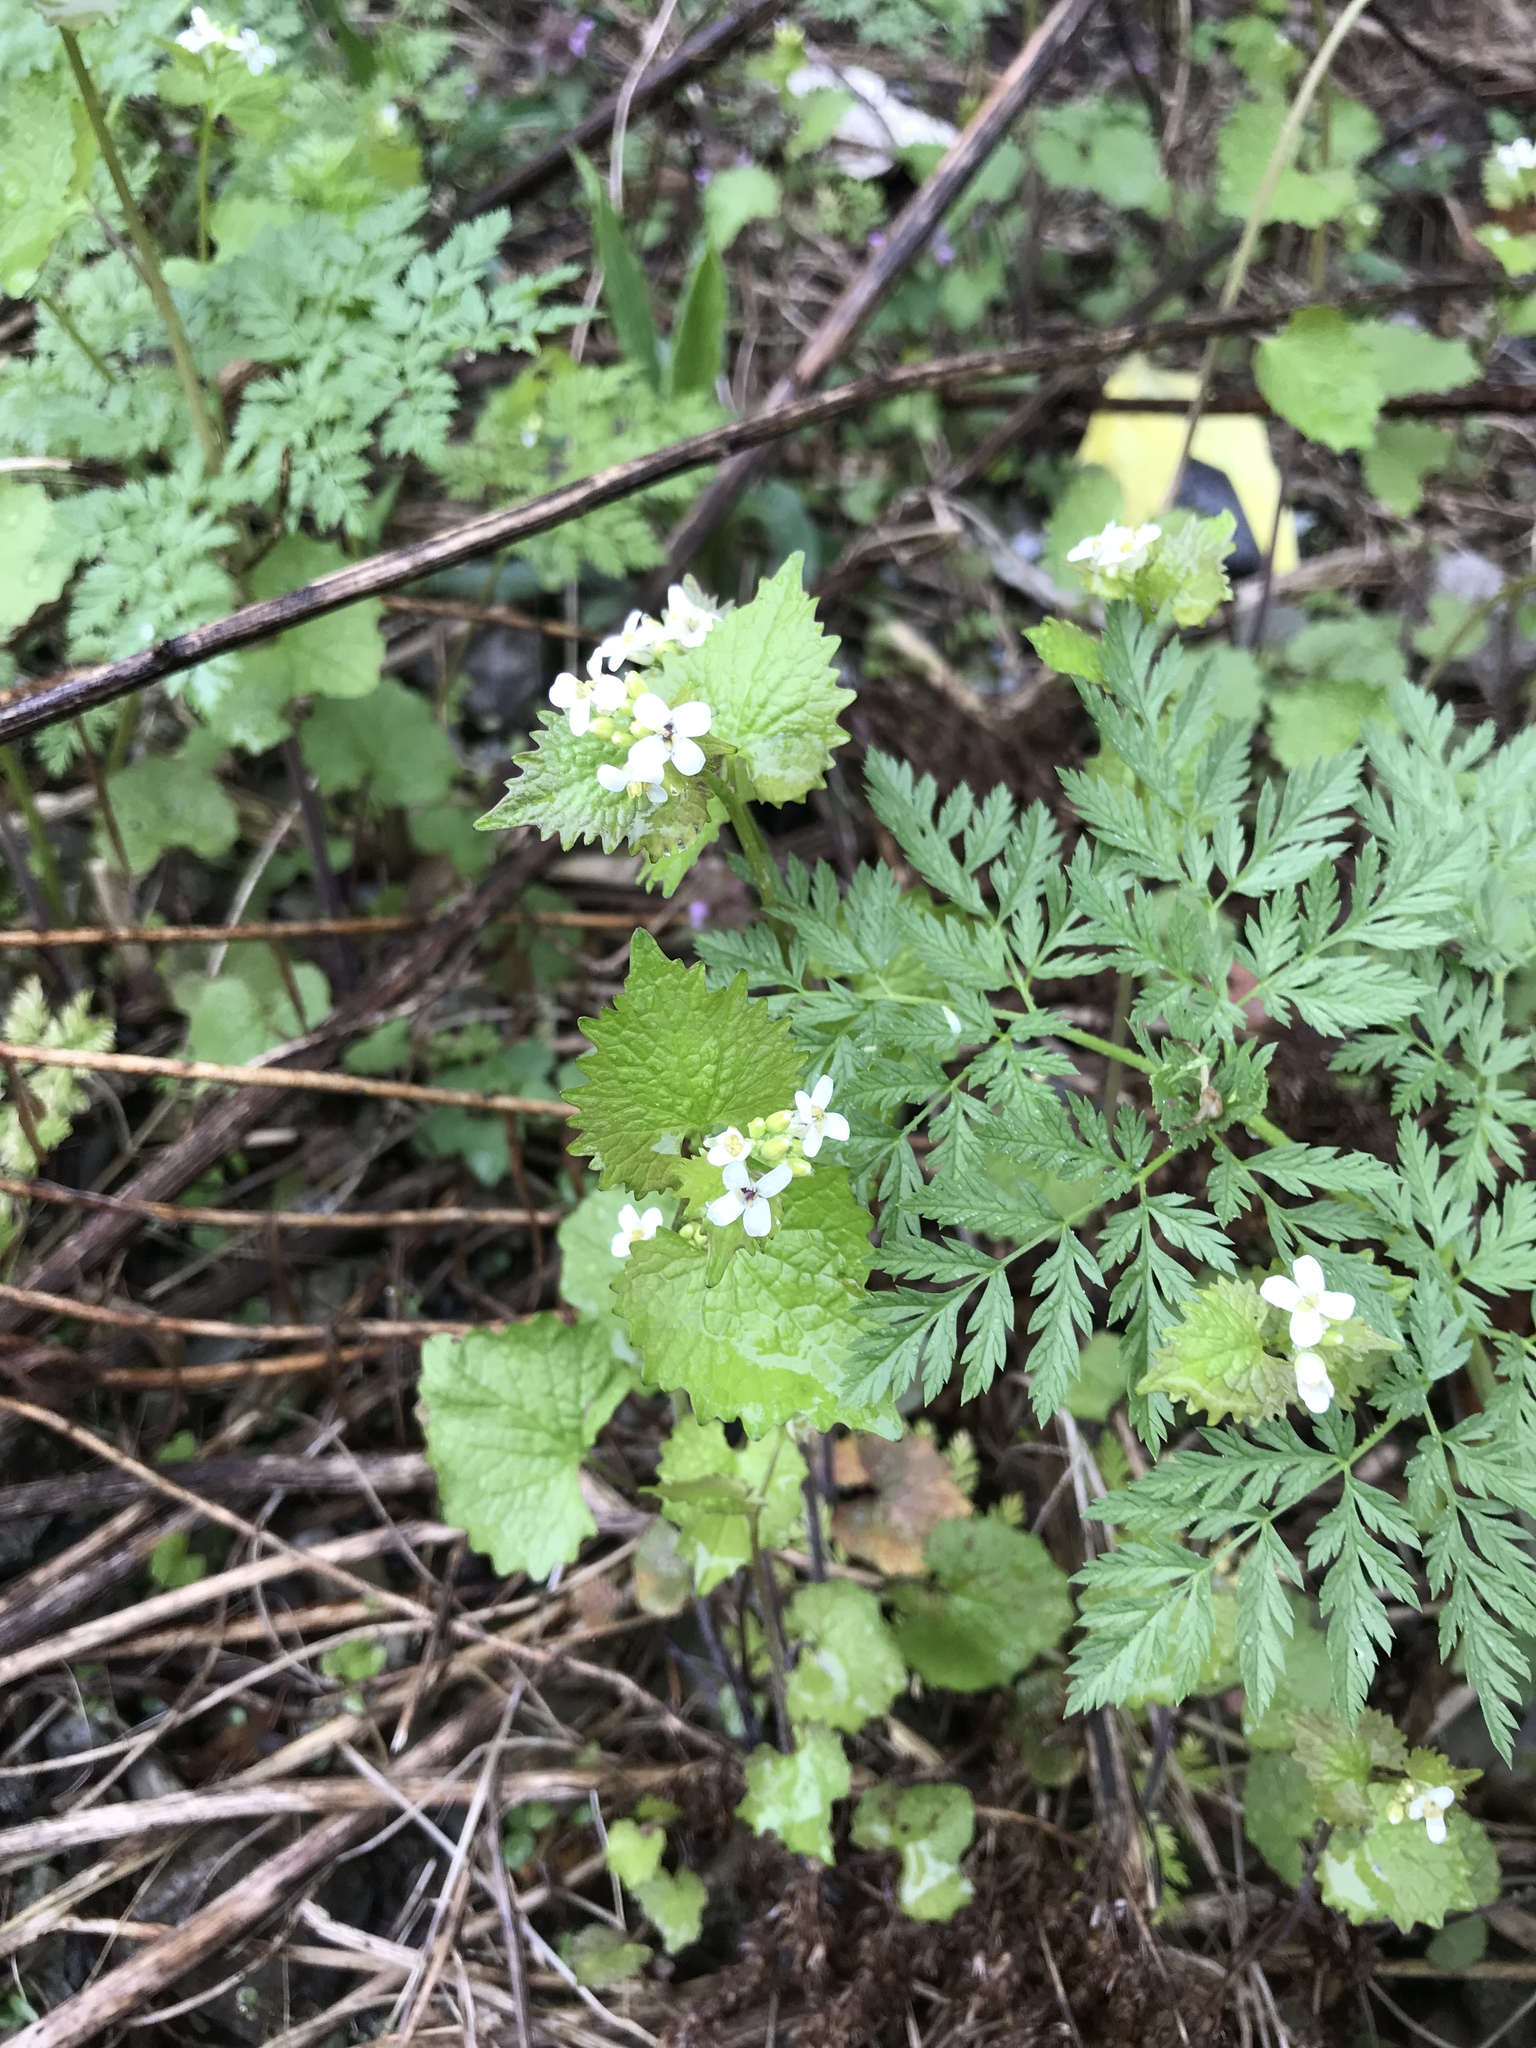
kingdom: Plantae
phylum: Tracheophyta
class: Magnoliopsida
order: Brassicales
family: Brassicaceae
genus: Alliaria
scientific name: Alliaria petiolata
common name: Garlic mustard
